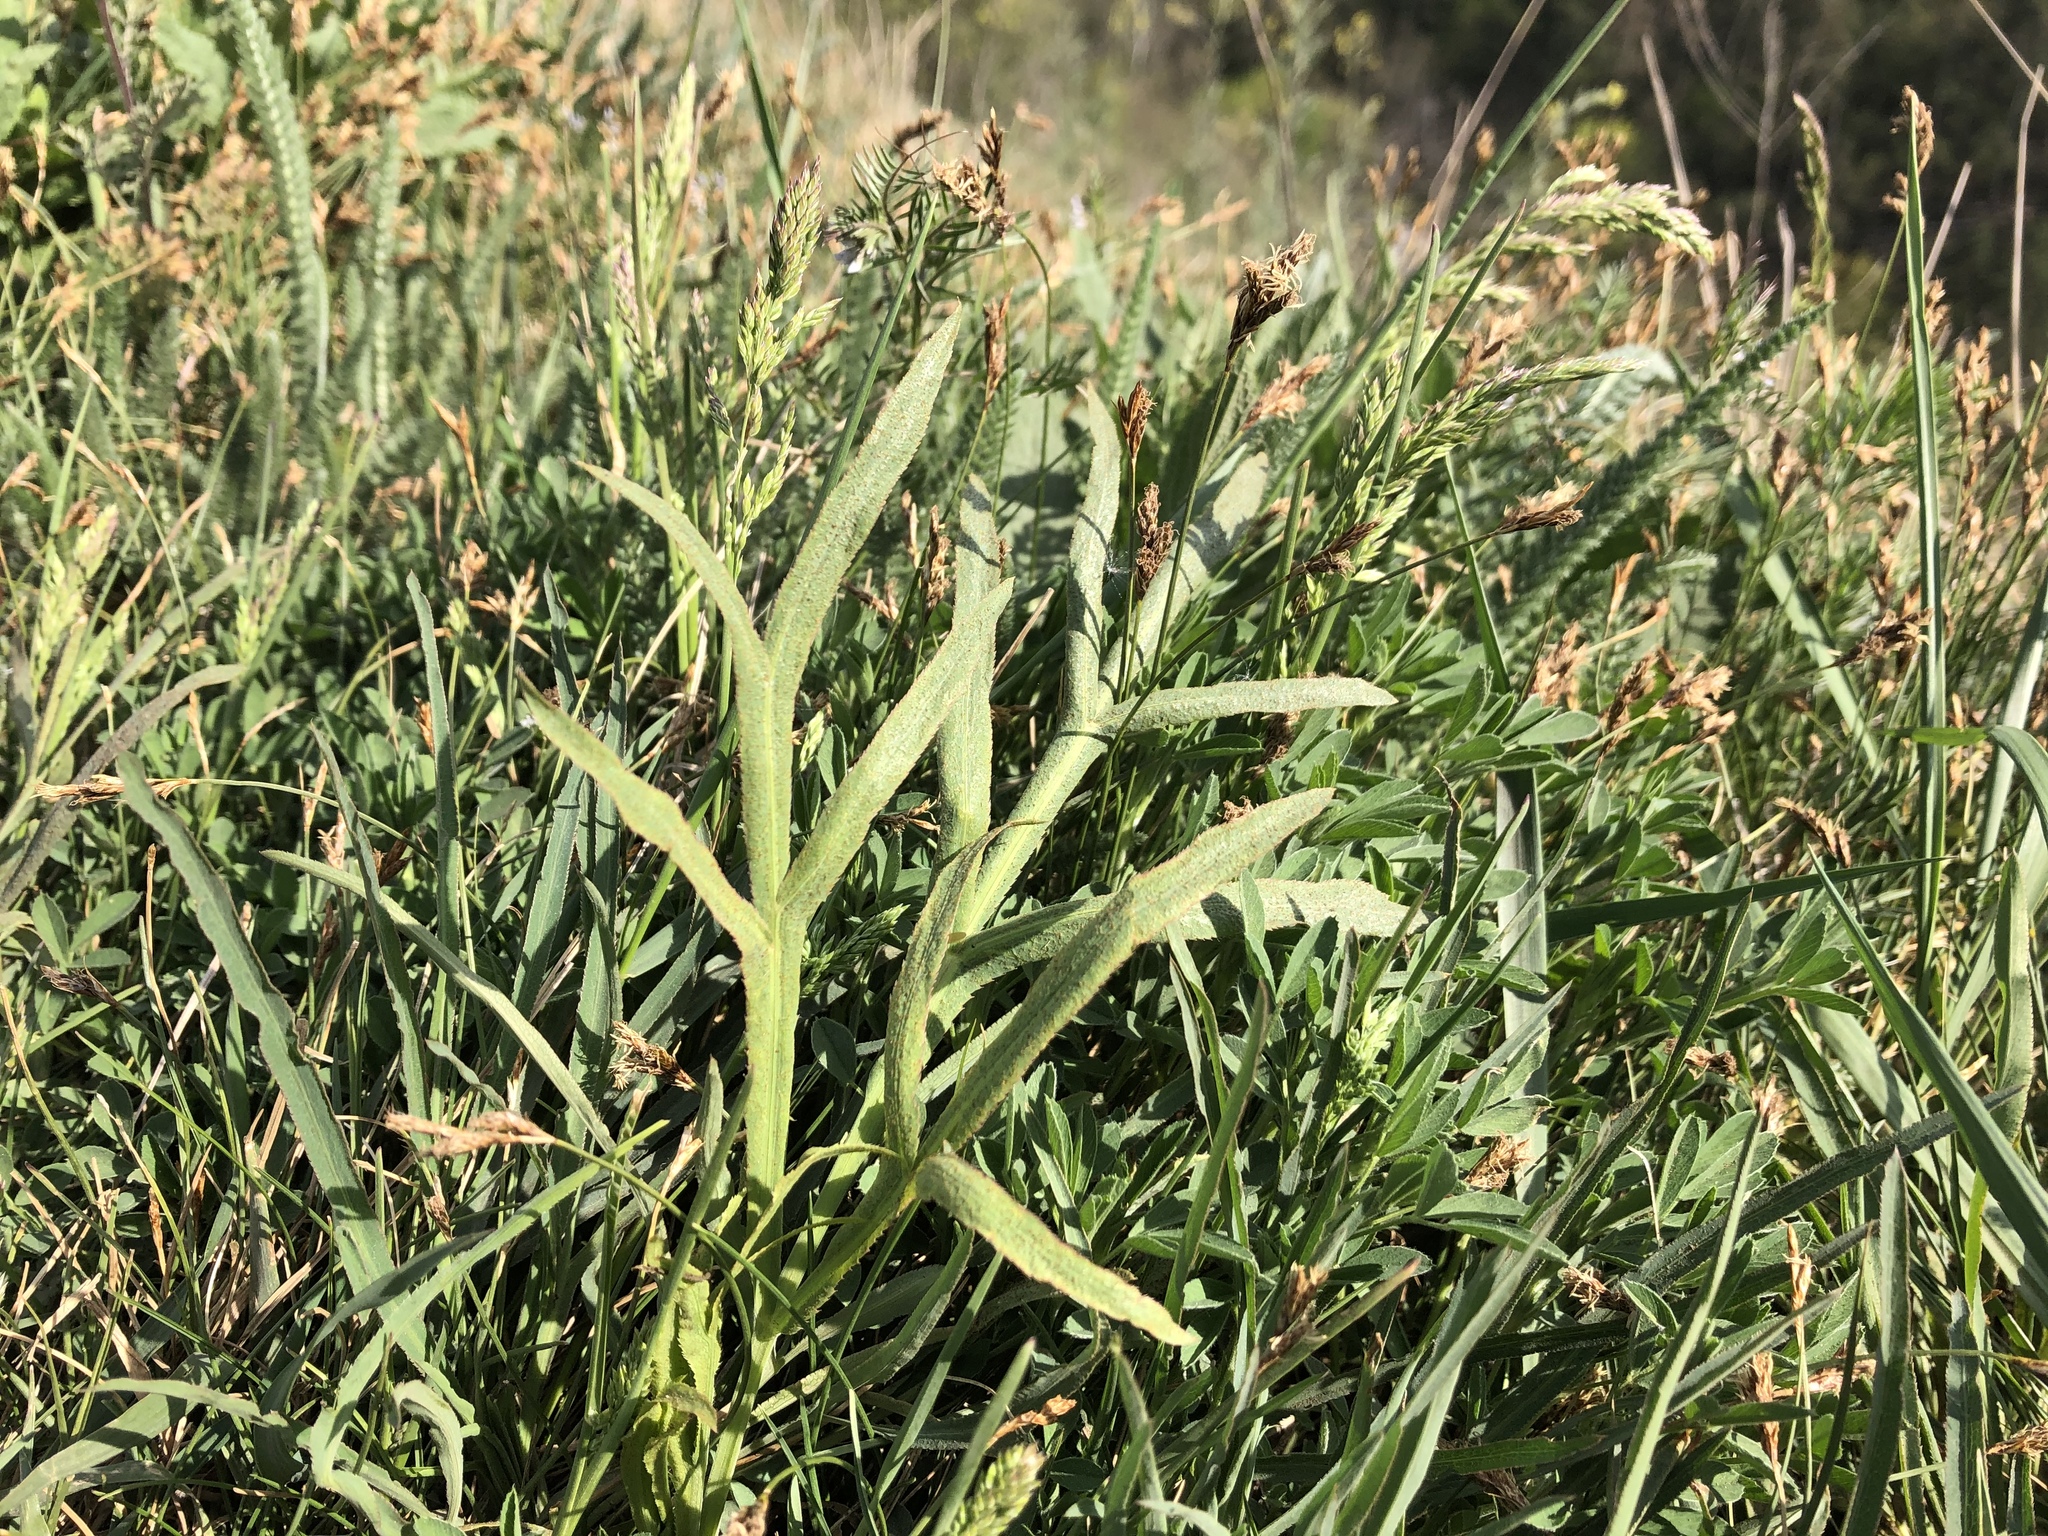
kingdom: Plantae
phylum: Tracheophyta
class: Magnoliopsida
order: Apiales
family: Apiaceae
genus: Falcaria
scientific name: Falcaria vulgaris
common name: Longleaf
